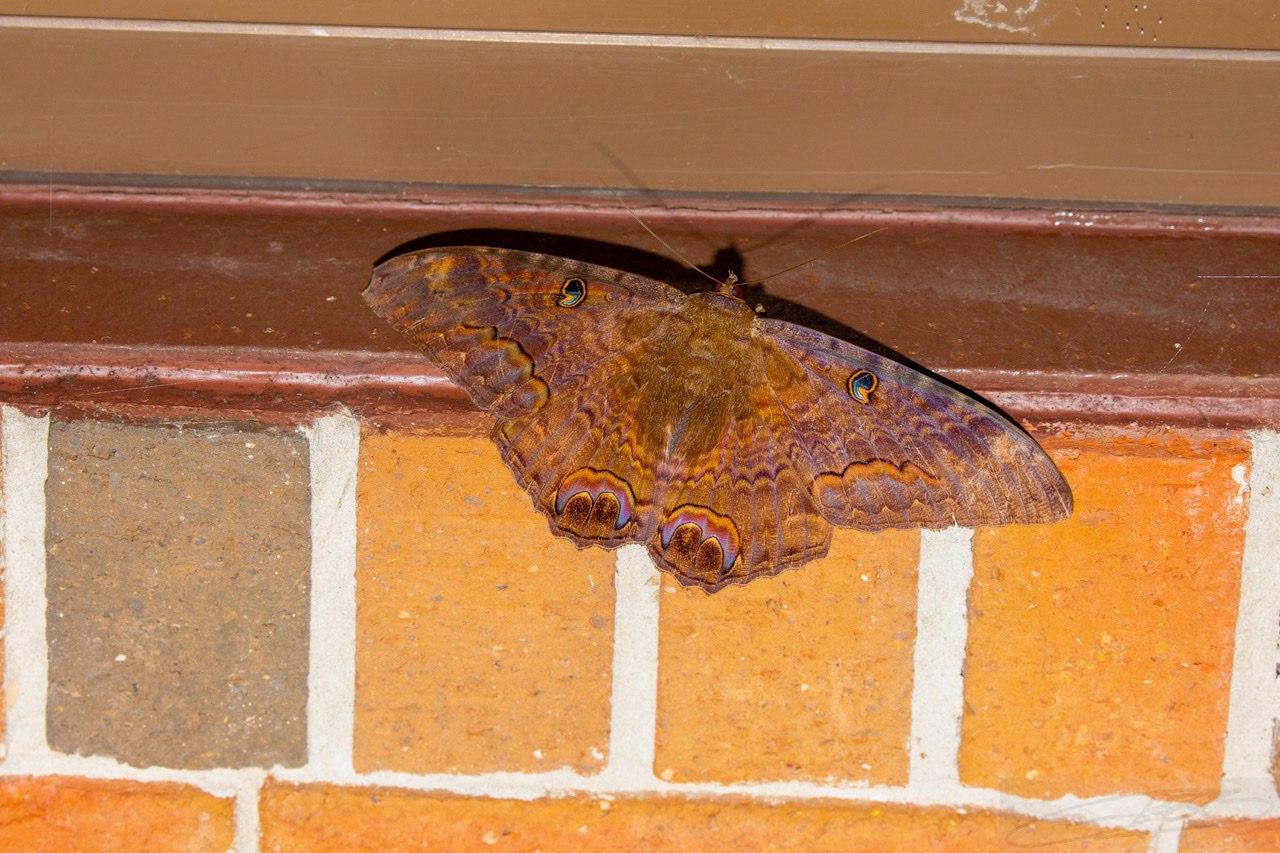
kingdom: Animalia
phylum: Arthropoda
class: Insecta
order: Lepidoptera
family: Erebidae
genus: Ascalapha
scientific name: Ascalapha odorata
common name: Black witch
